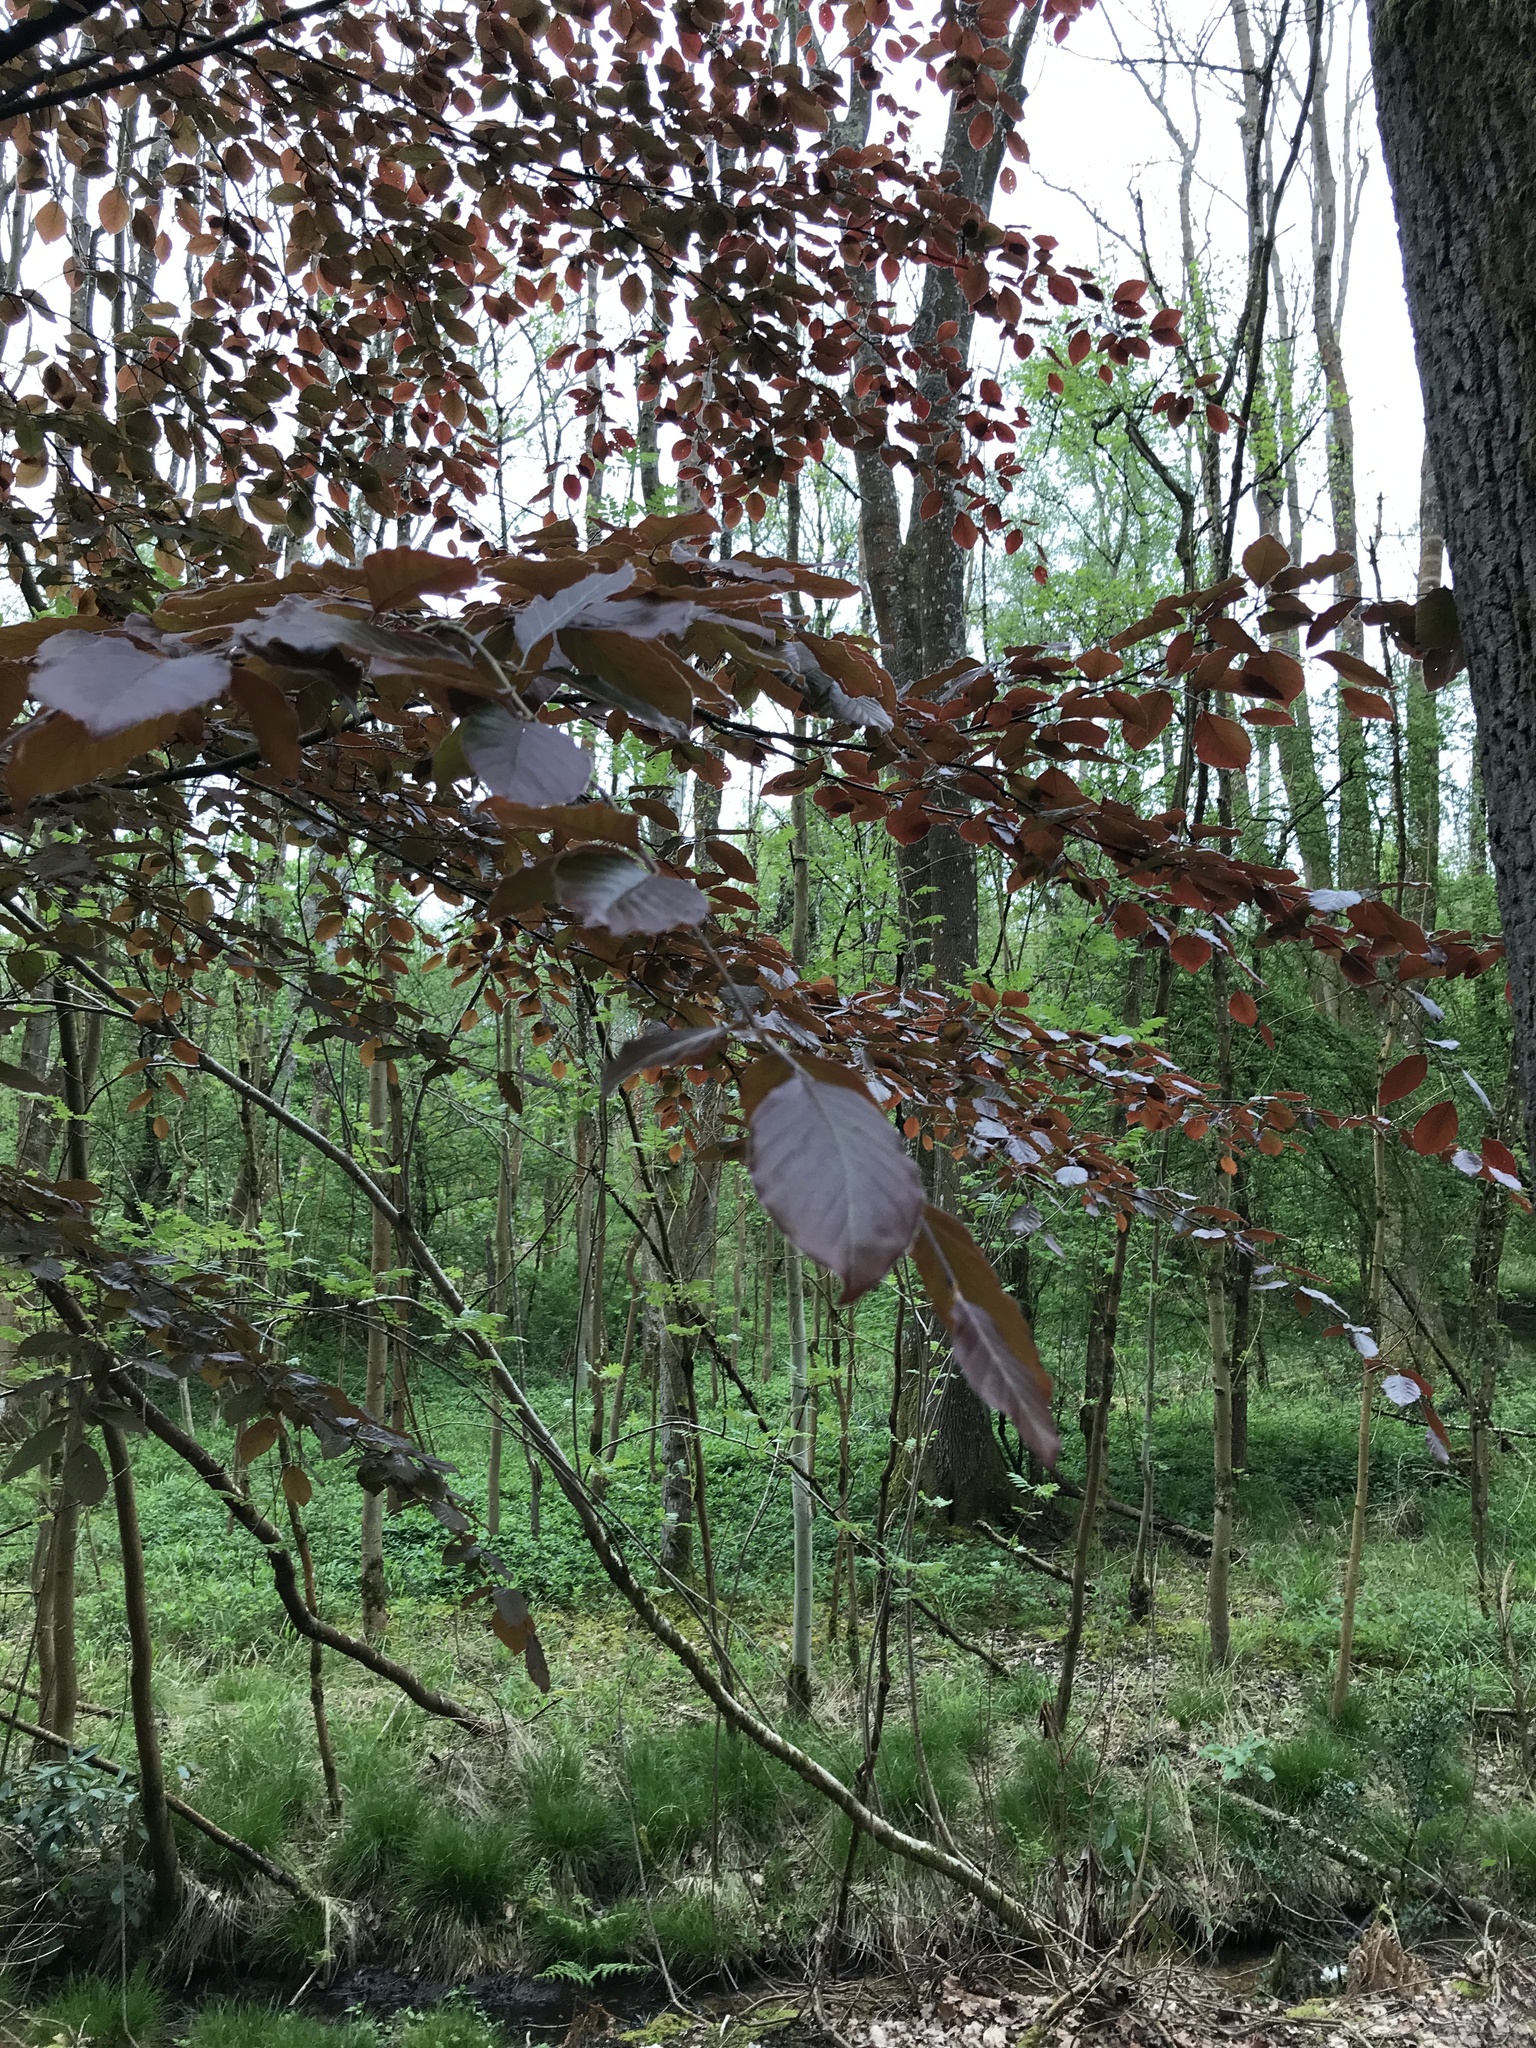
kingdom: Plantae
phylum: Tracheophyta
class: Magnoliopsida
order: Fagales
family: Fagaceae
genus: Fagus
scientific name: Fagus sylvatica
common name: Beech
